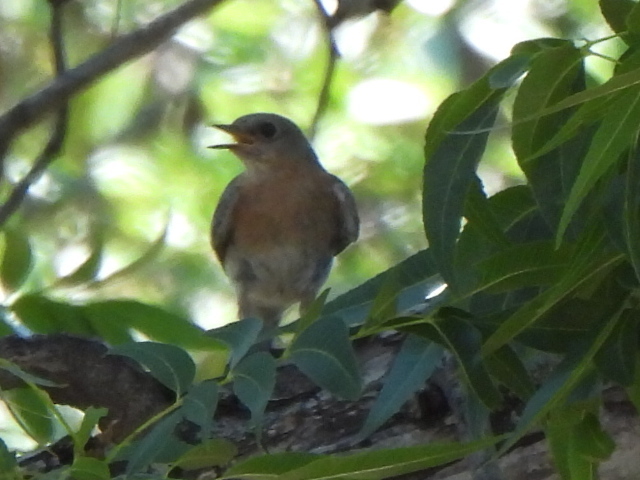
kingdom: Animalia
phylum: Chordata
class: Aves
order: Passeriformes
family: Turdidae
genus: Sialia
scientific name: Sialia sialis
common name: Eastern bluebird
